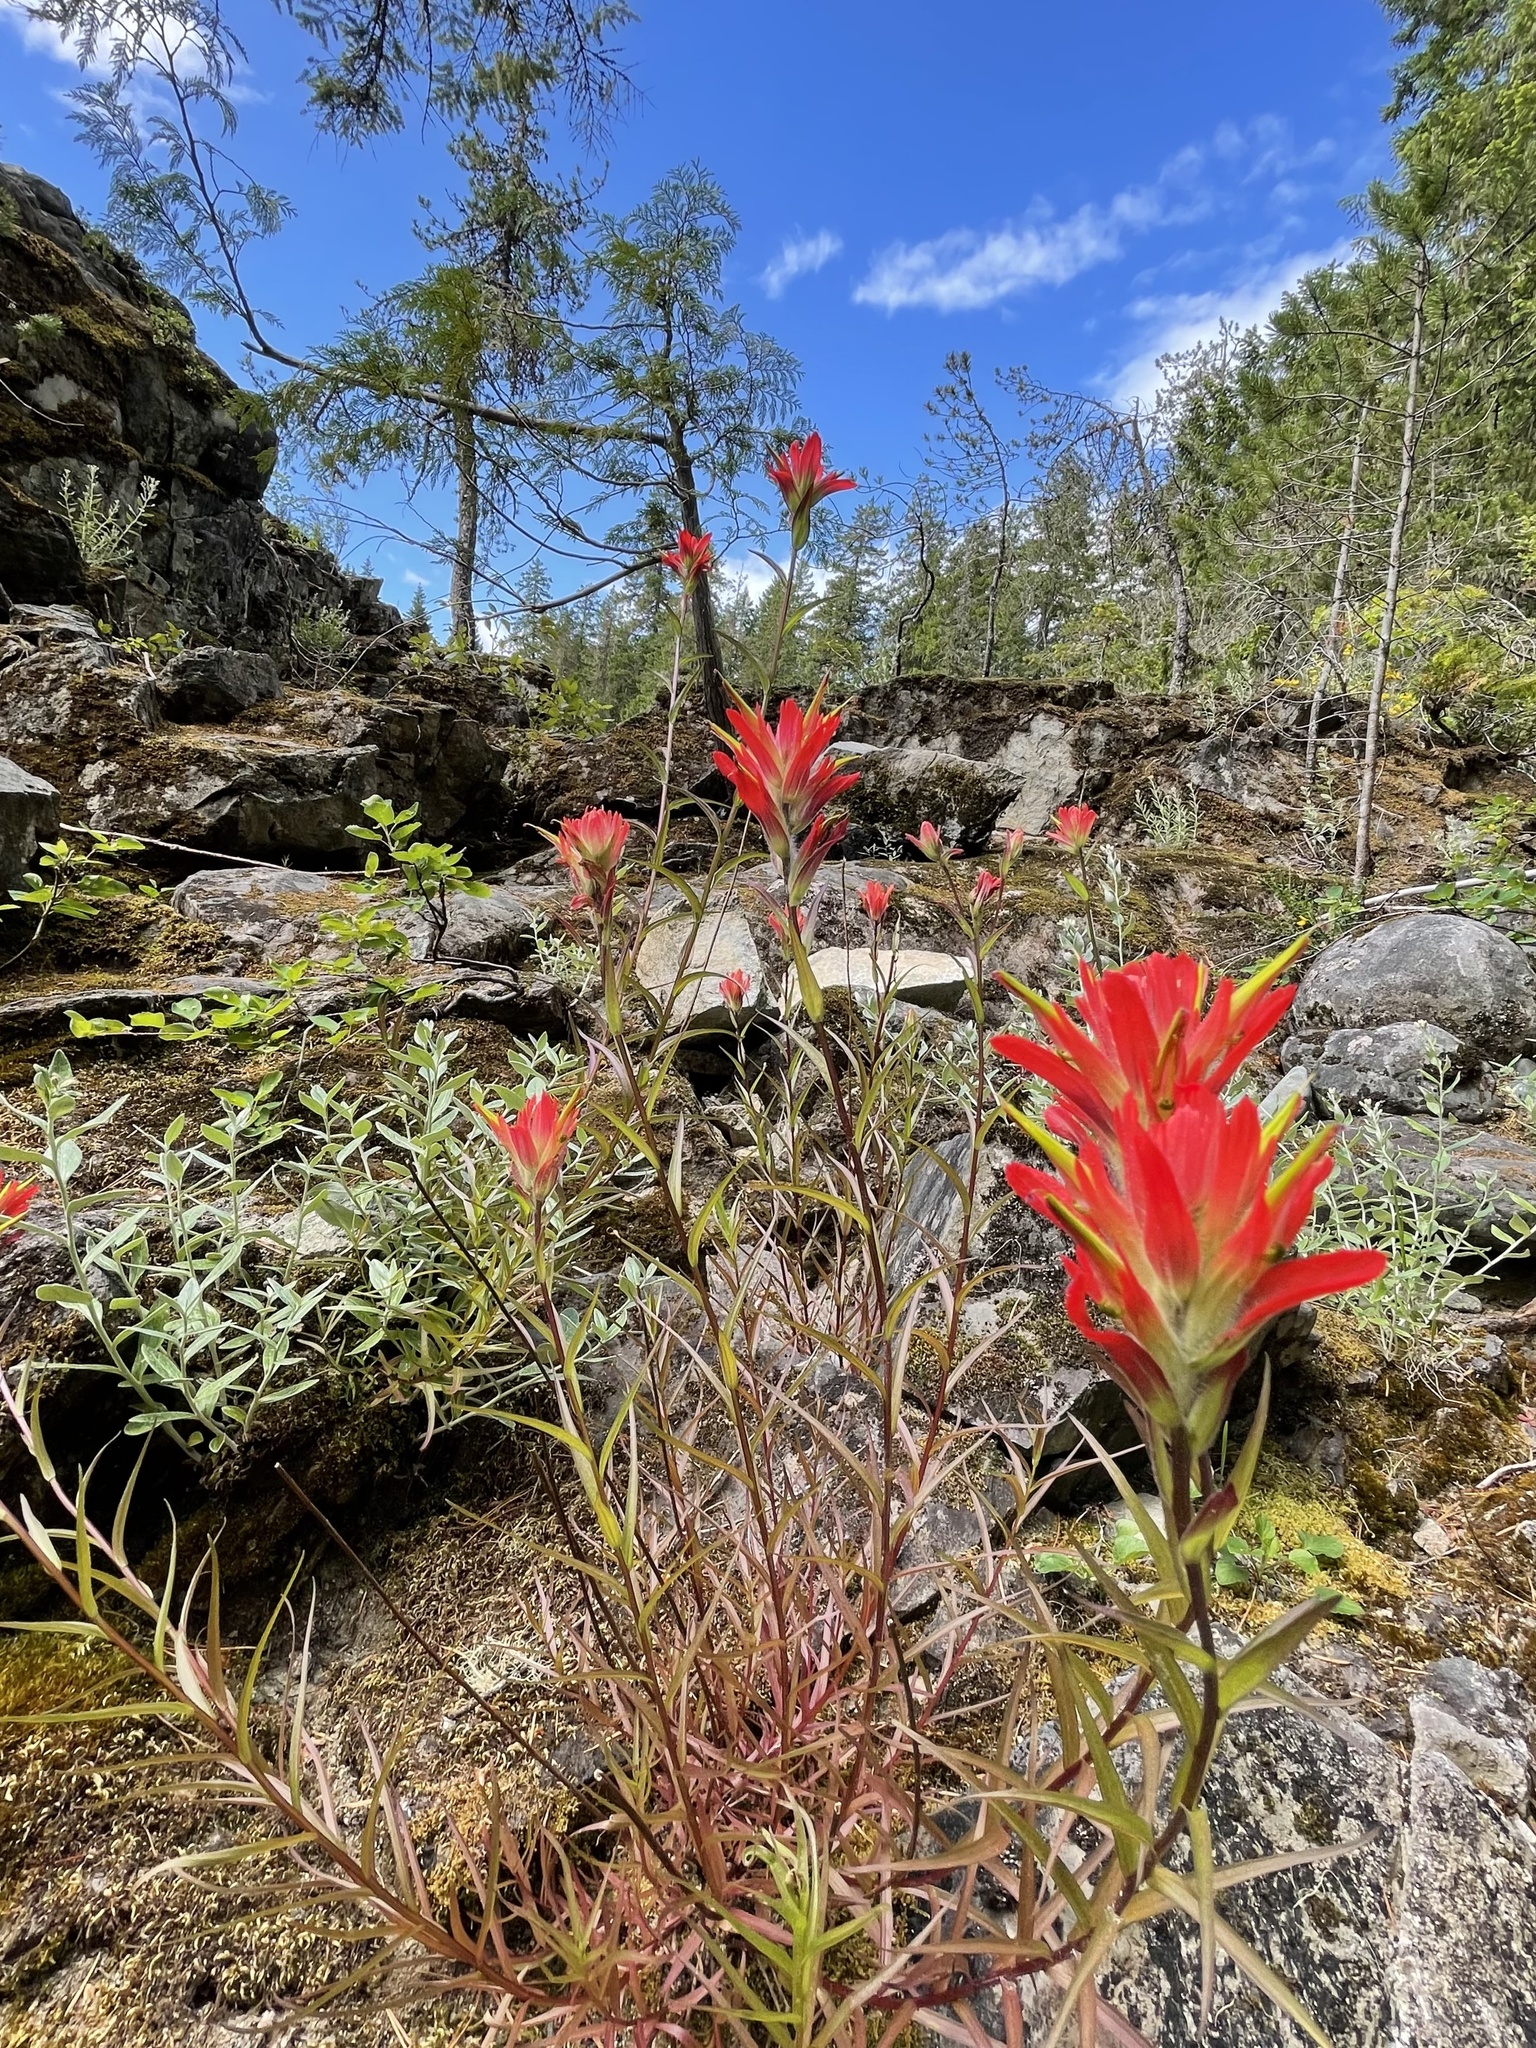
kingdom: Plantae
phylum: Tracheophyta
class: Magnoliopsida
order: Lamiales
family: Orobanchaceae
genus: Castilleja
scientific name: Castilleja miniata
